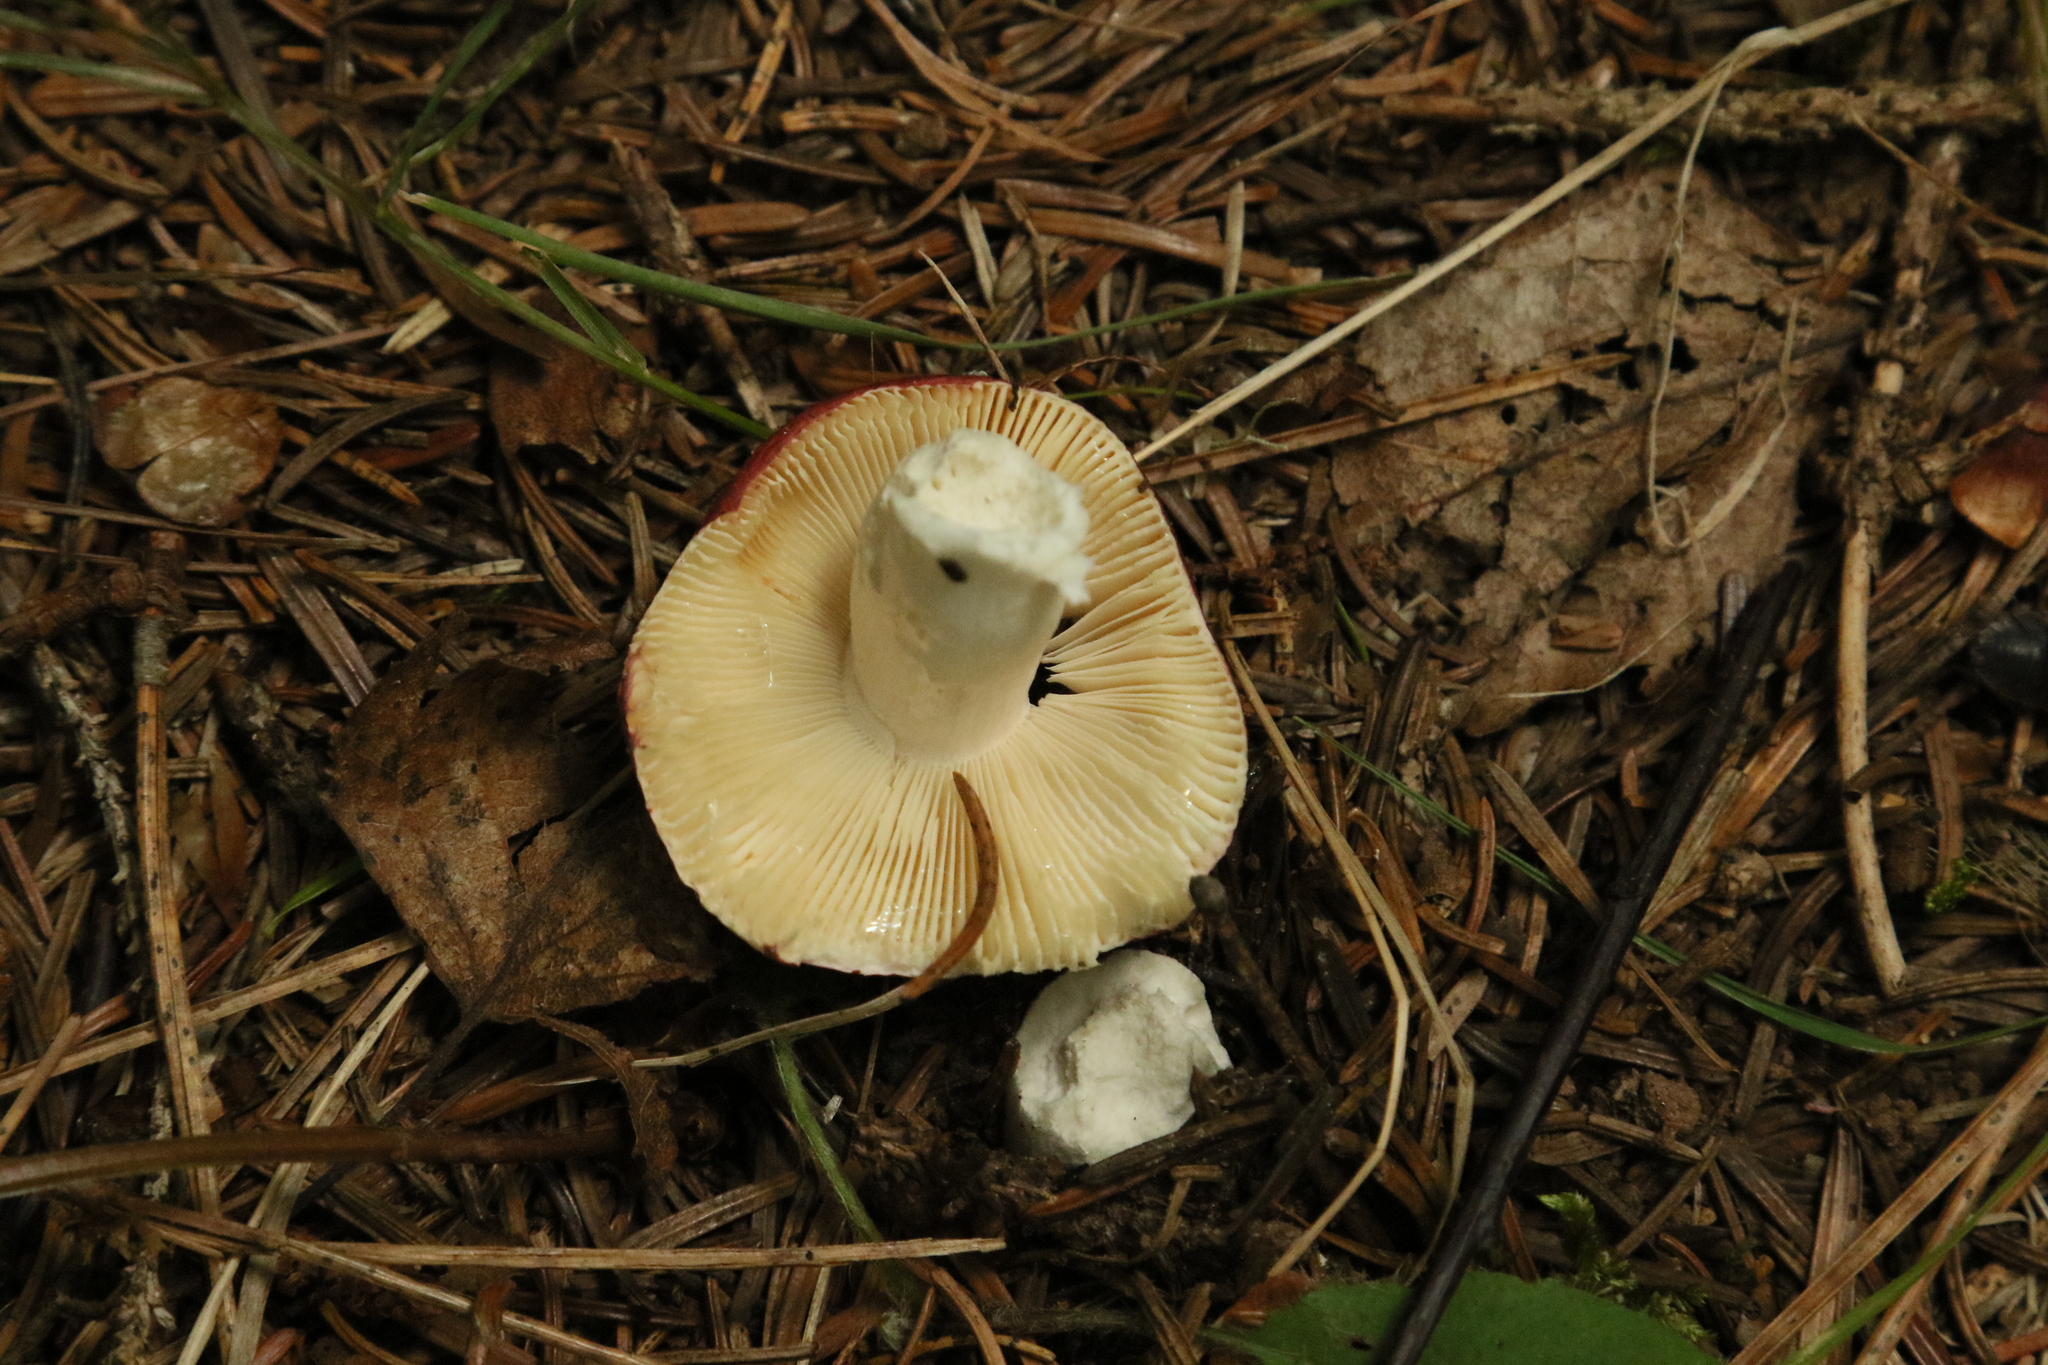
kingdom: Fungi
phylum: Basidiomycota
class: Agaricomycetes
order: Russulales
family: Russulaceae
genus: Russula
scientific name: Russula
